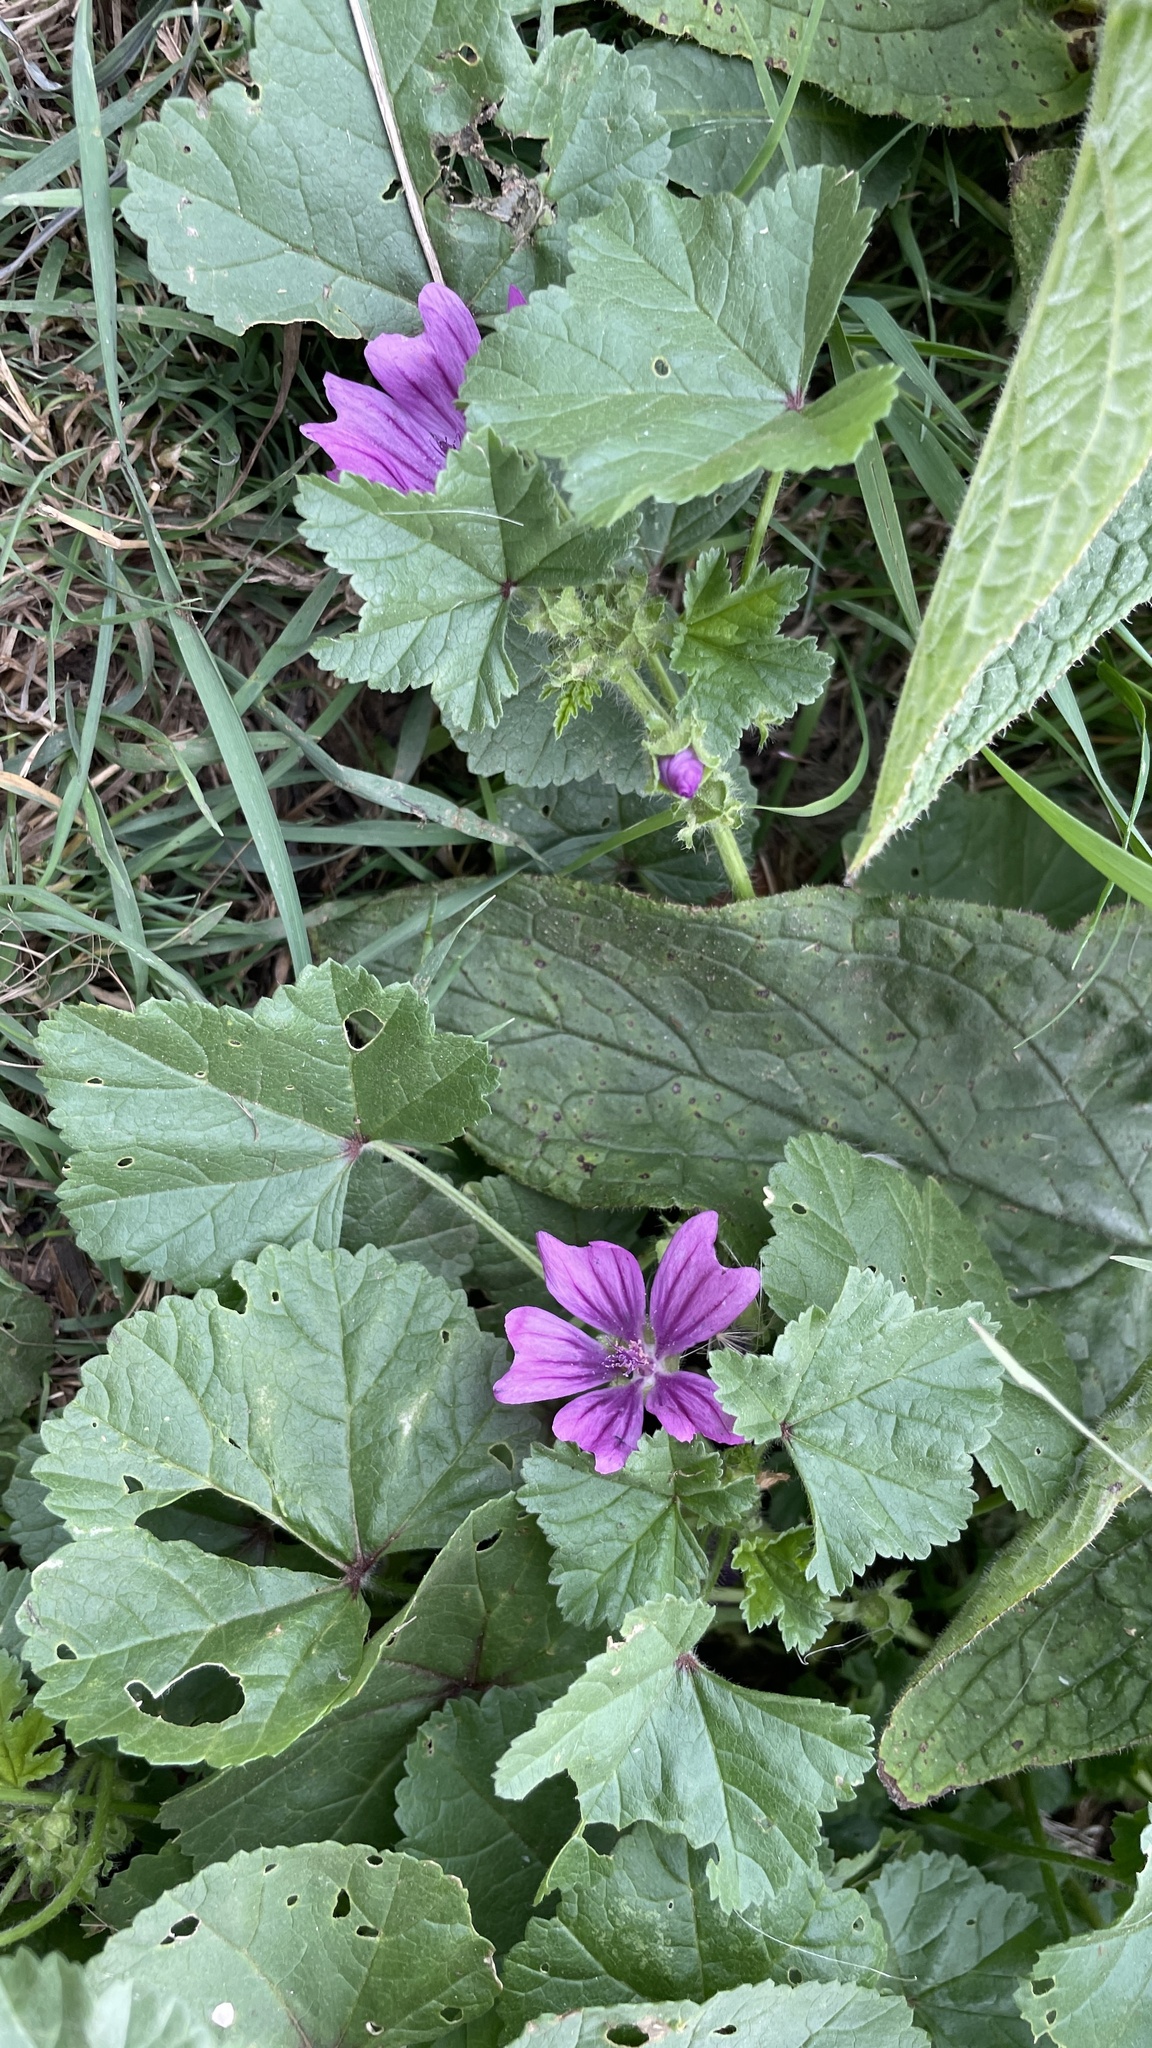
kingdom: Plantae
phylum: Tracheophyta
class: Magnoliopsida
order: Malvales
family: Malvaceae
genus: Malva
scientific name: Malva sylvestris
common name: Common mallow
